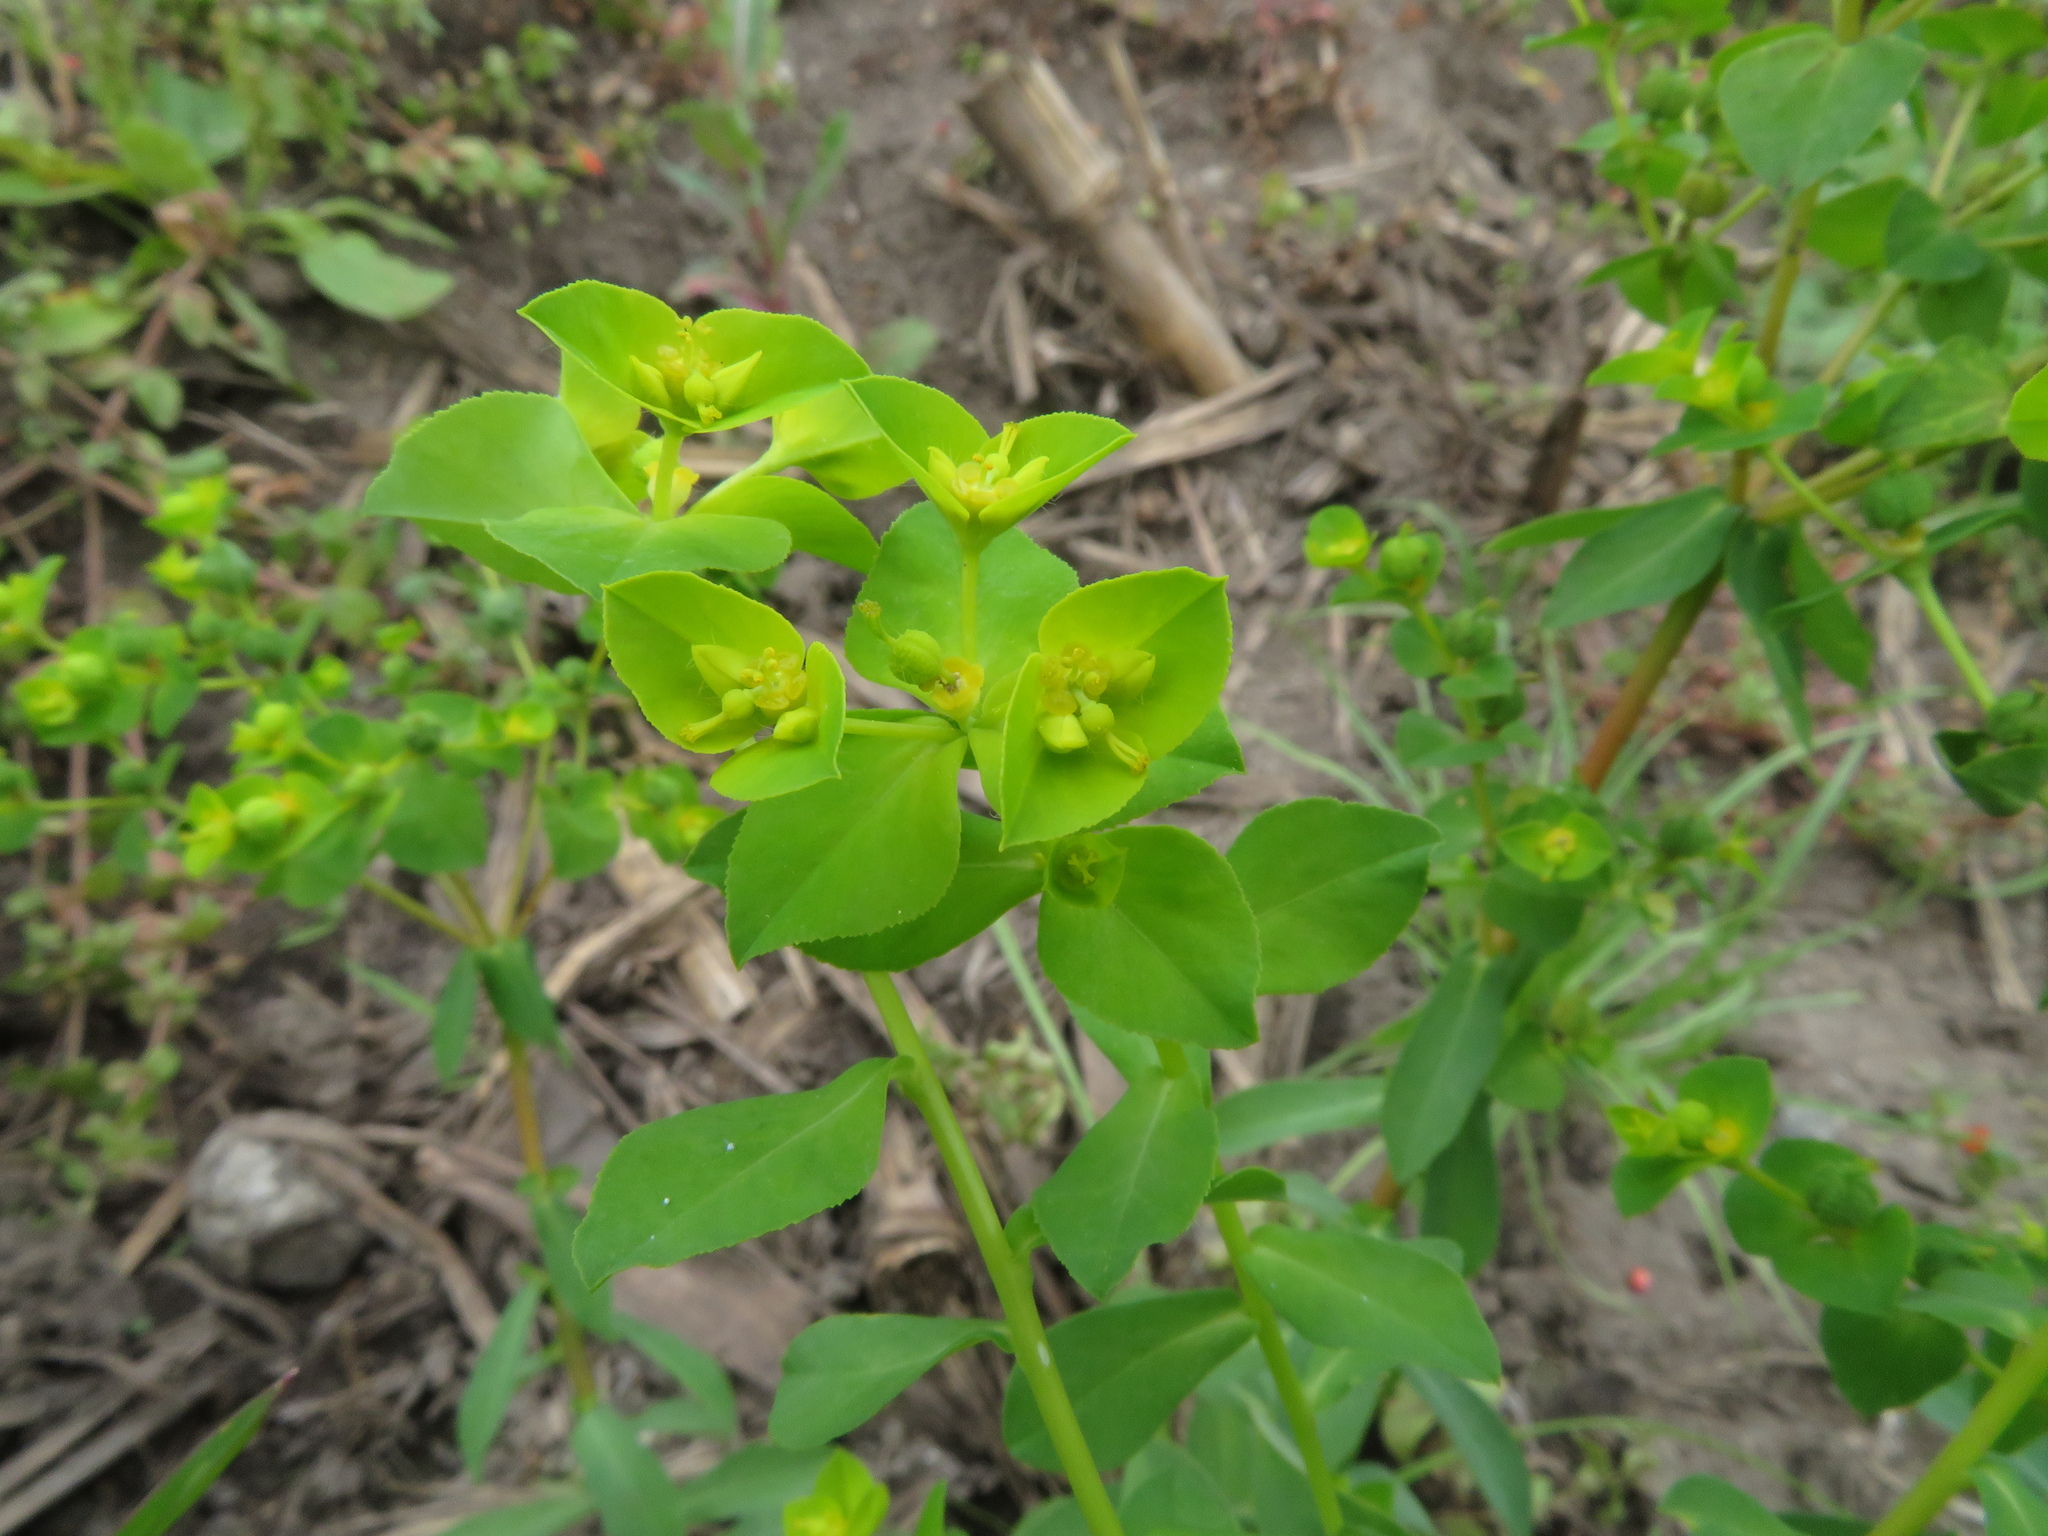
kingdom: Plantae
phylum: Tracheophyta
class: Magnoliopsida
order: Malpighiales
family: Euphorbiaceae
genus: Euphorbia
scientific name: Euphorbia platyphyllos
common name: Broad-leaved spurge
